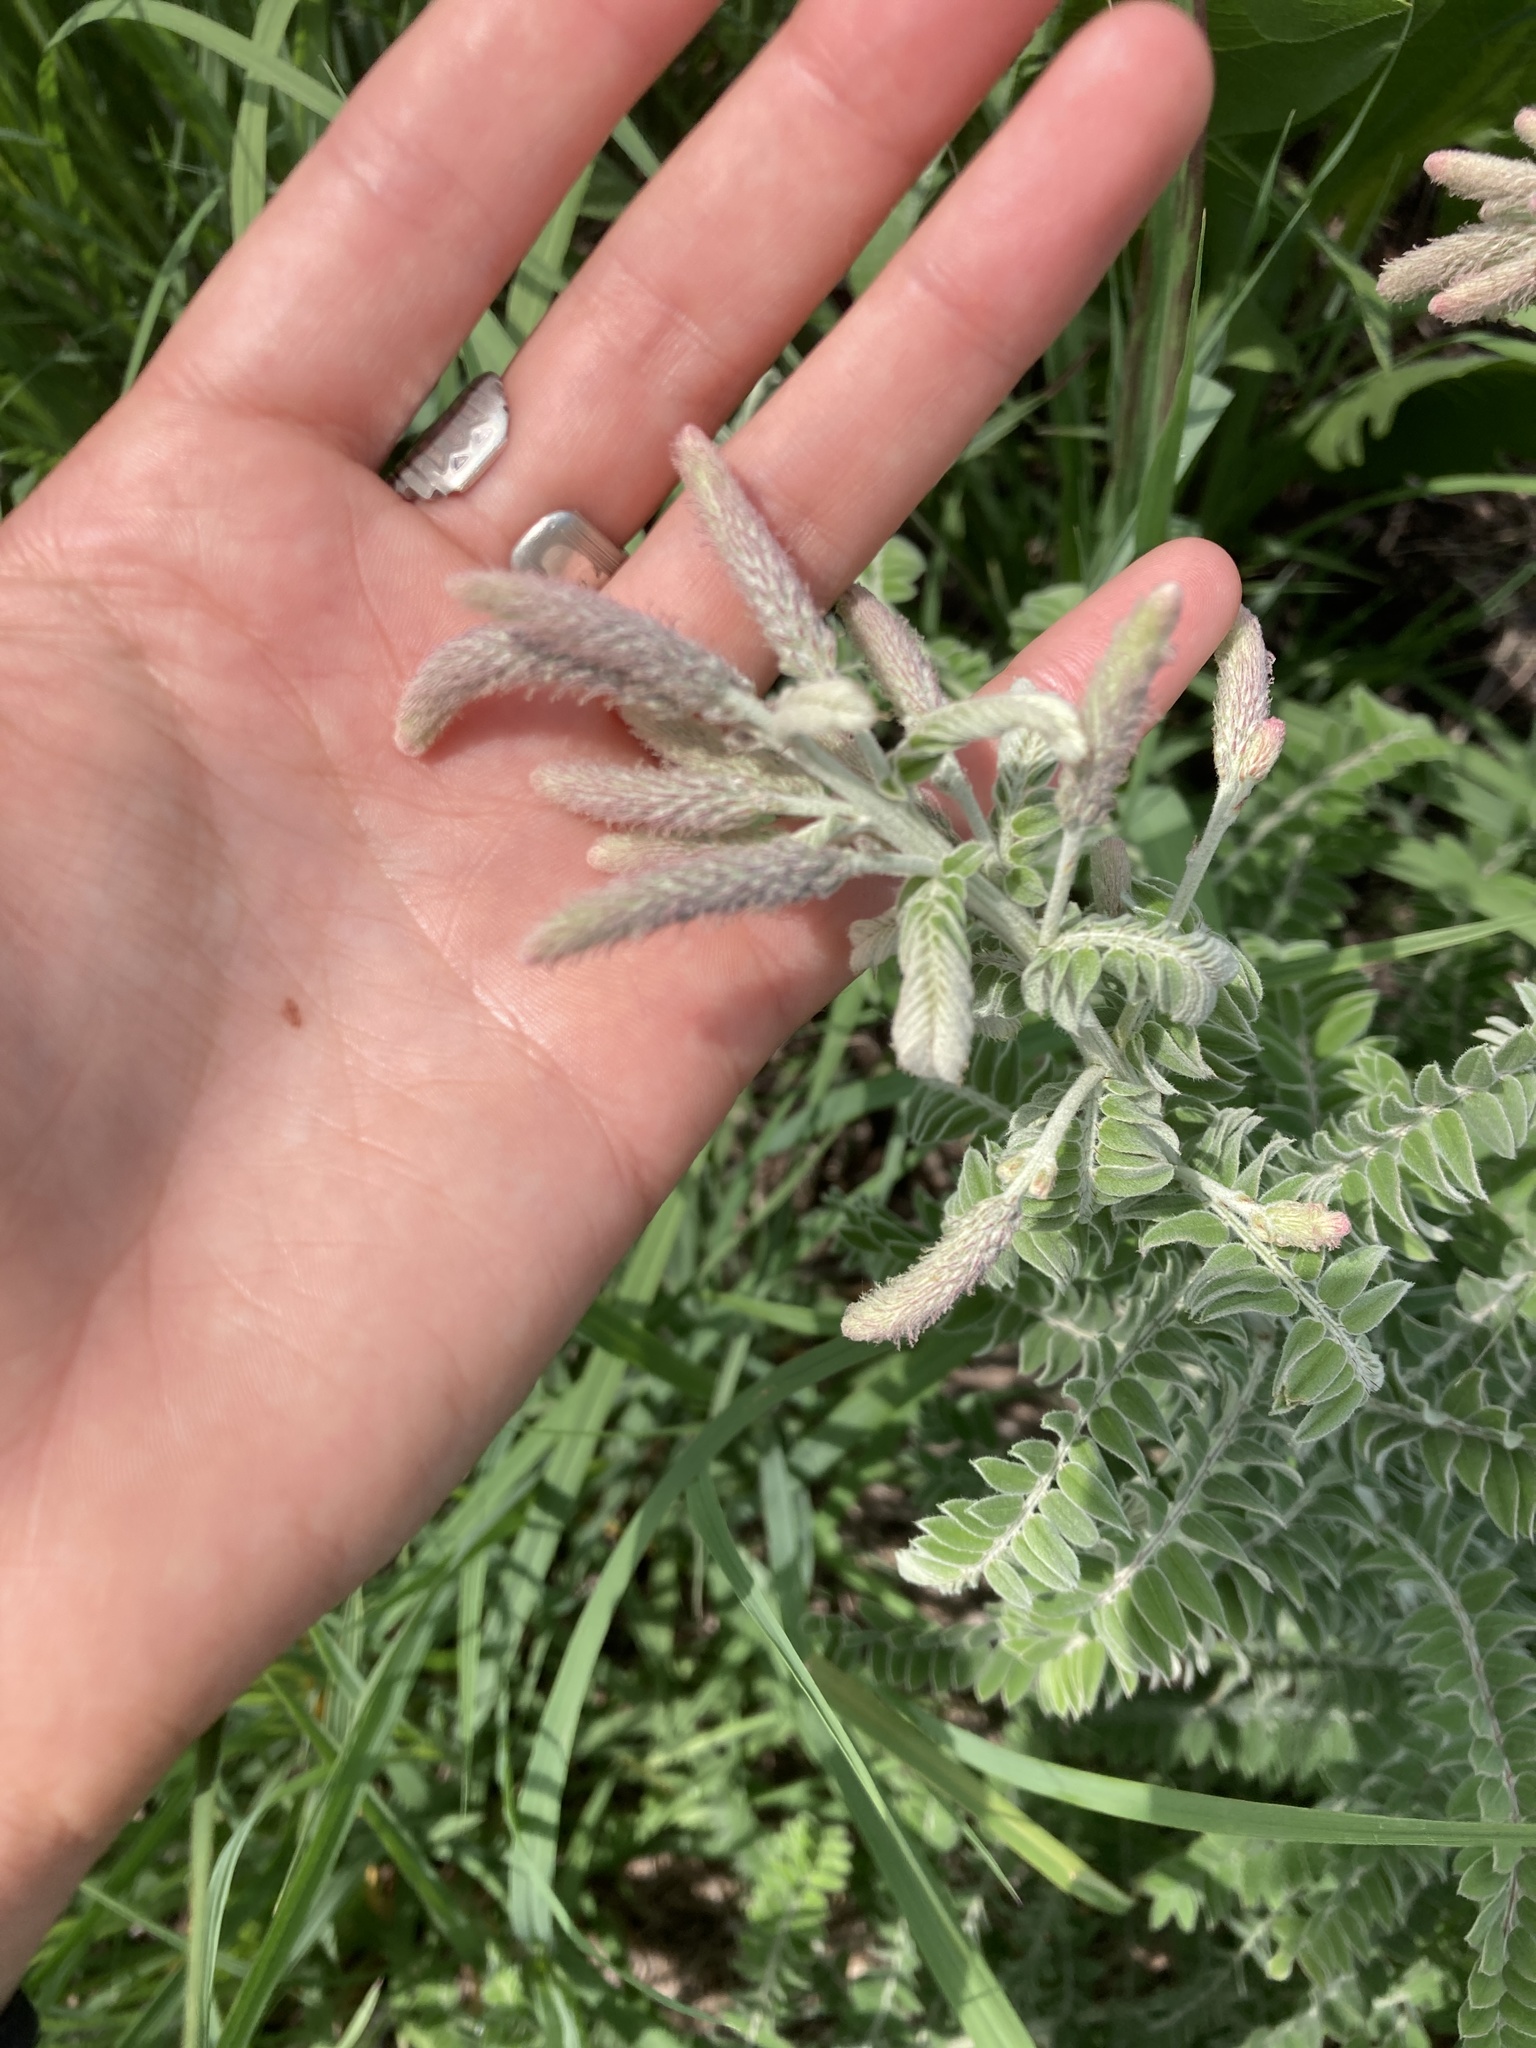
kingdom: Plantae
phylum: Tracheophyta
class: Magnoliopsida
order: Fabales
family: Fabaceae
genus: Amorpha
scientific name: Amorpha canescens
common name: Leadplant
